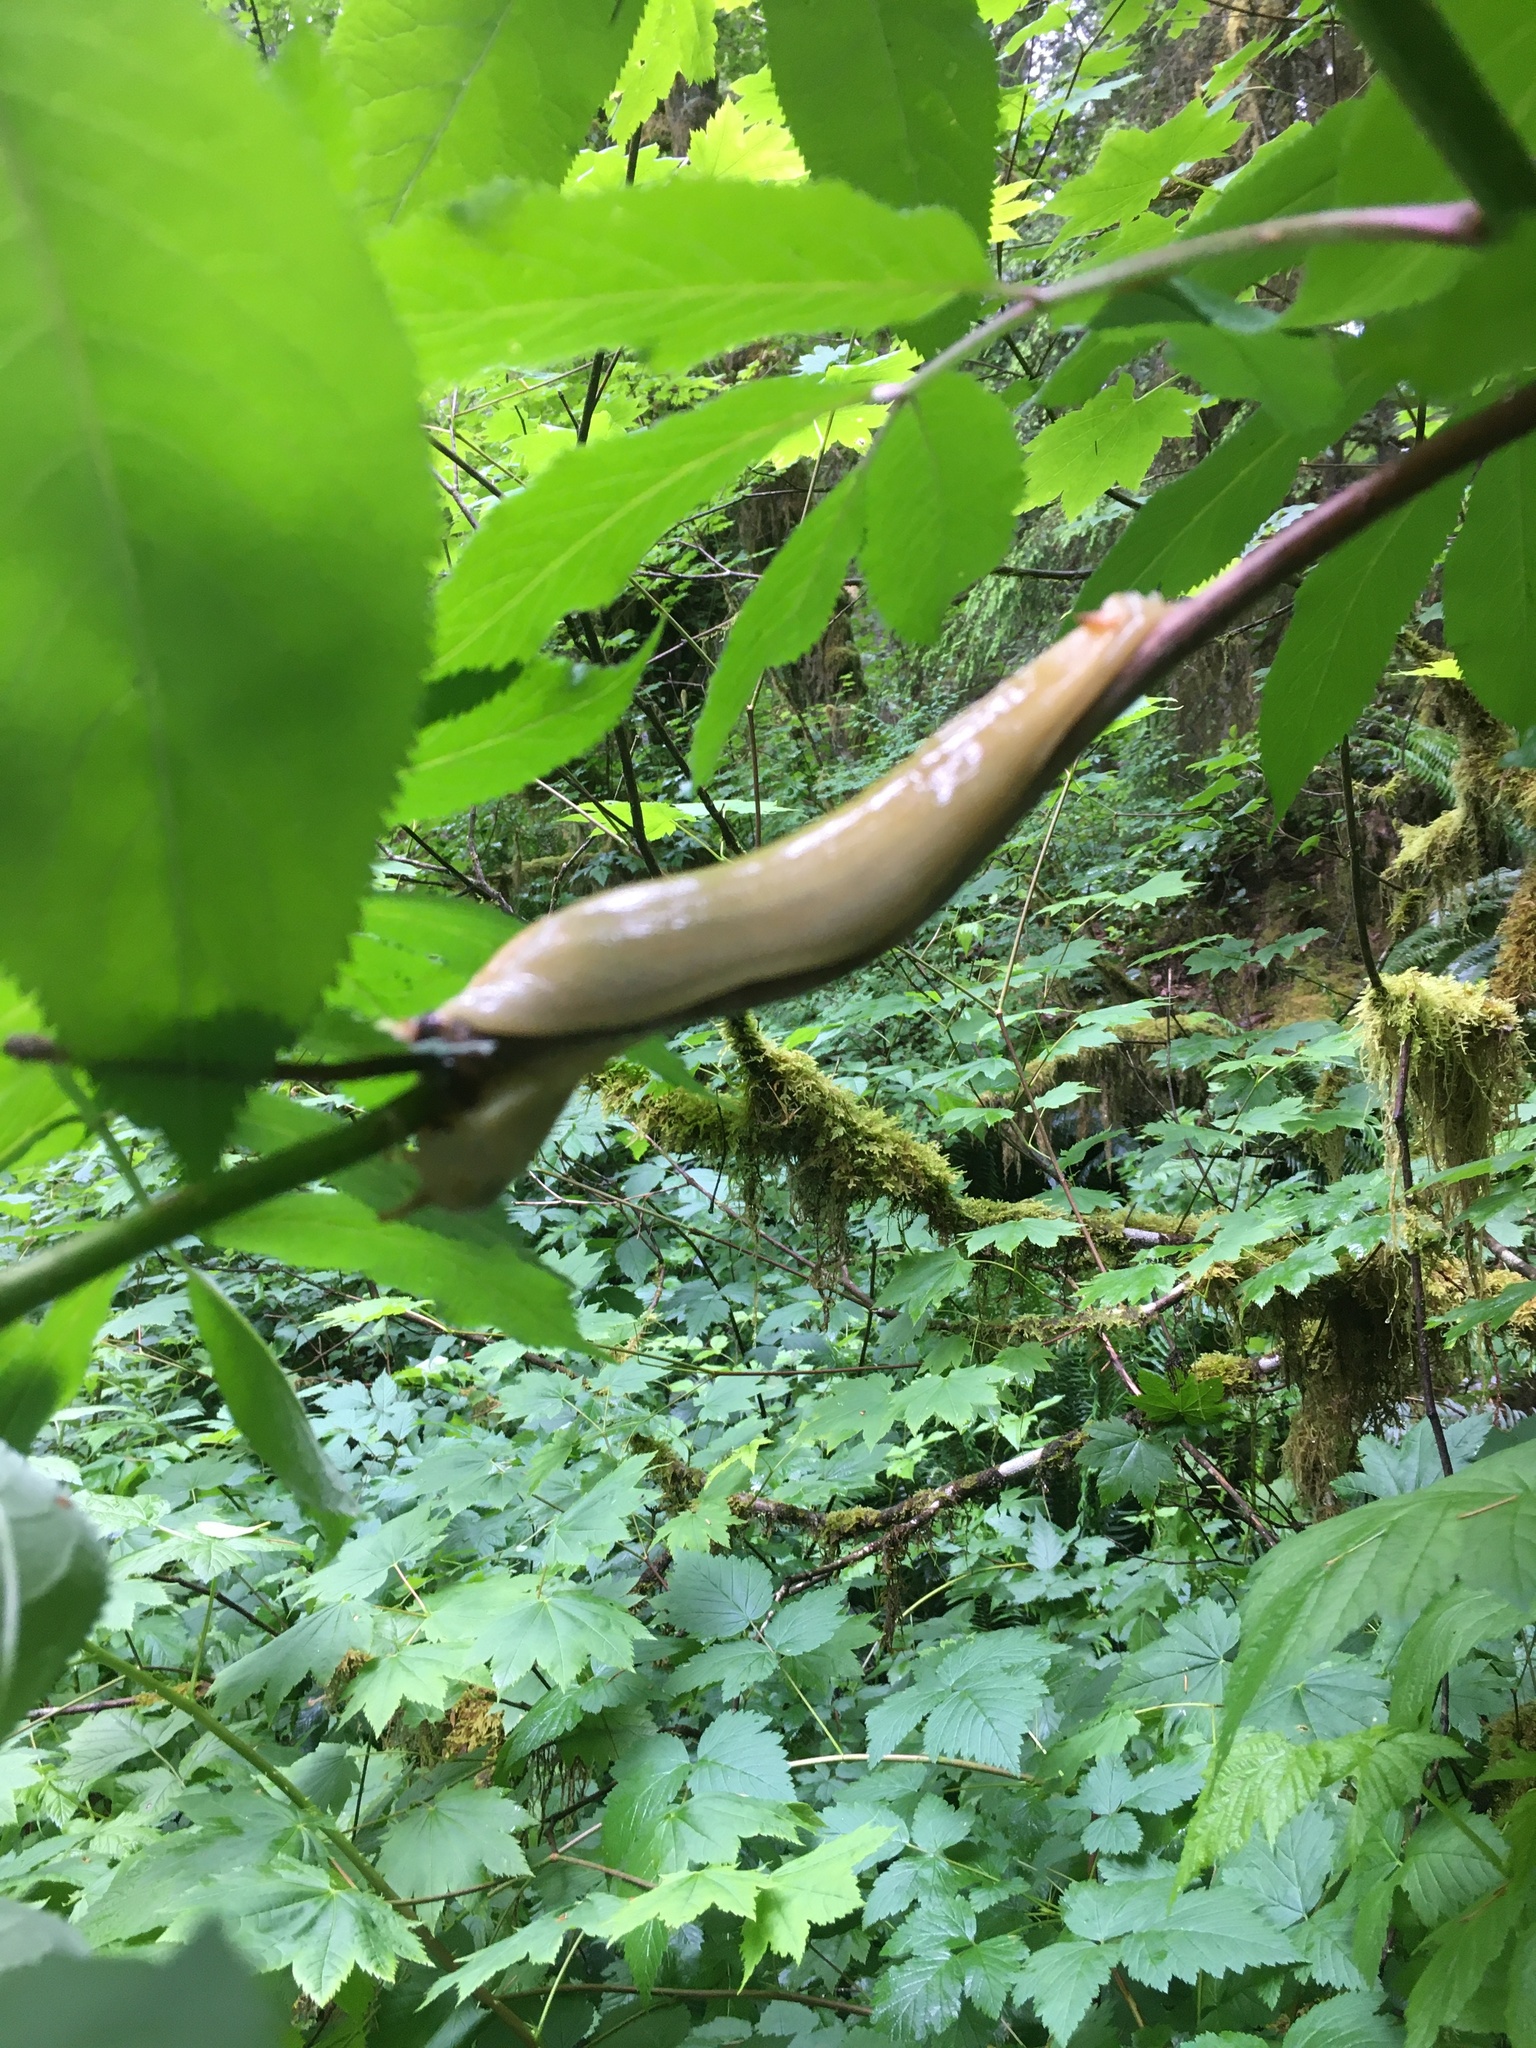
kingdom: Animalia
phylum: Mollusca
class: Gastropoda
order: Stylommatophora
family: Ariolimacidae
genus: Ariolimax
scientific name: Ariolimax columbianus
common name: Pacific banana slug
